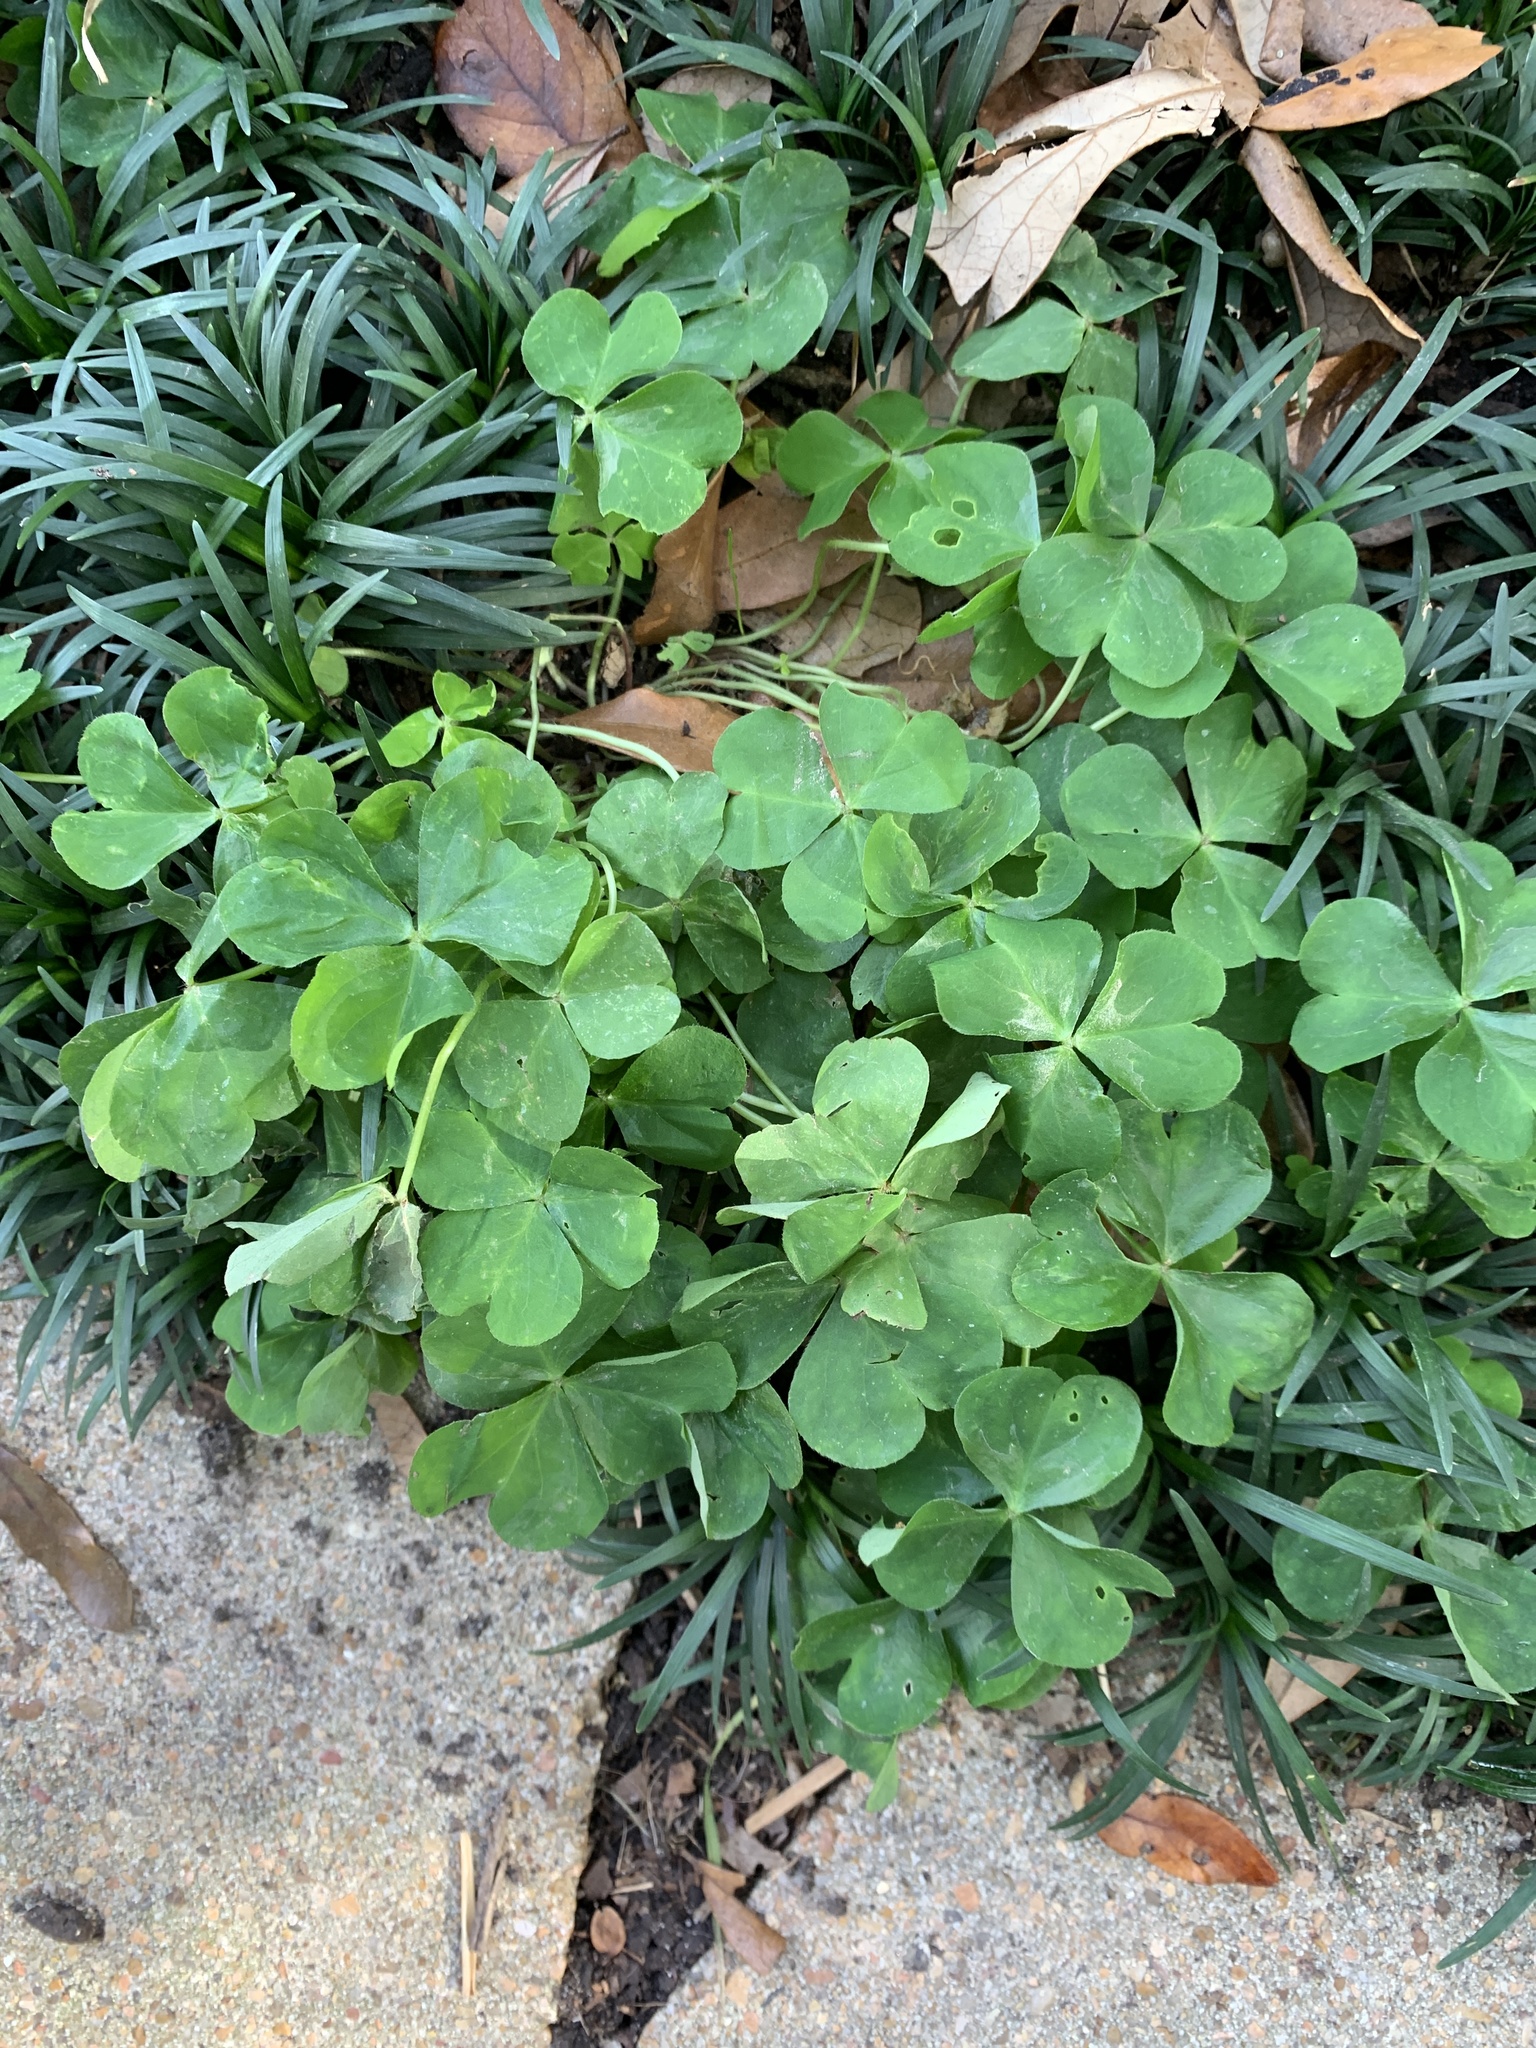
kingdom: Plantae
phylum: Tracheophyta
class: Magnoliopsida
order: Oxalidales
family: Oxalidaceae
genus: Oxalis
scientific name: Oxalis debilis
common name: Large-flowered pink-sorrel
